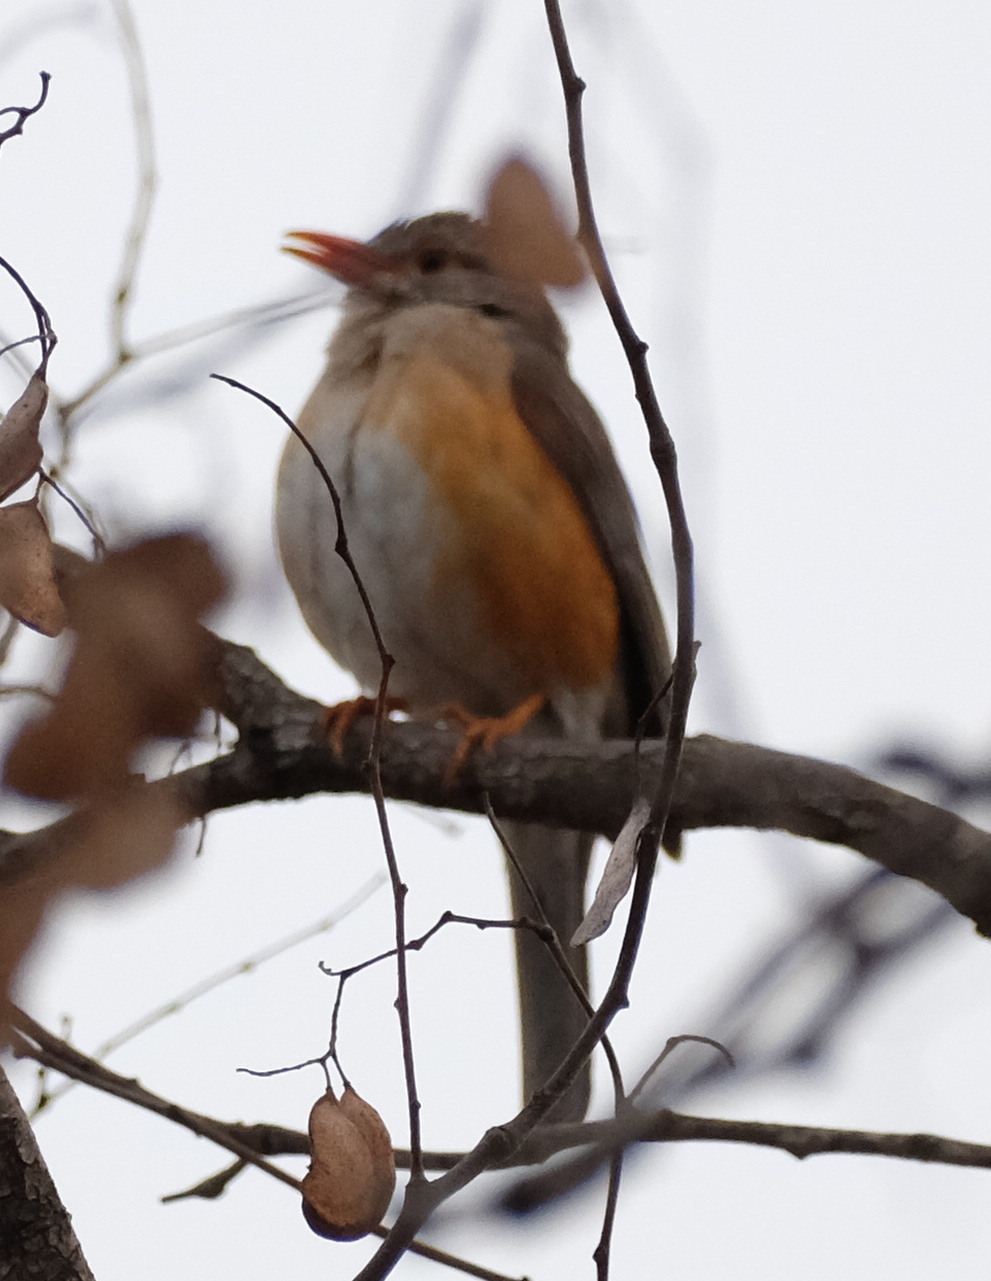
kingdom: Animalia
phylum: Chordata
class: Aves
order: Passeriformes
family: Turdidae
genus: Turdus
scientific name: Turdus libonyana
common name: Kurrichane thrush
